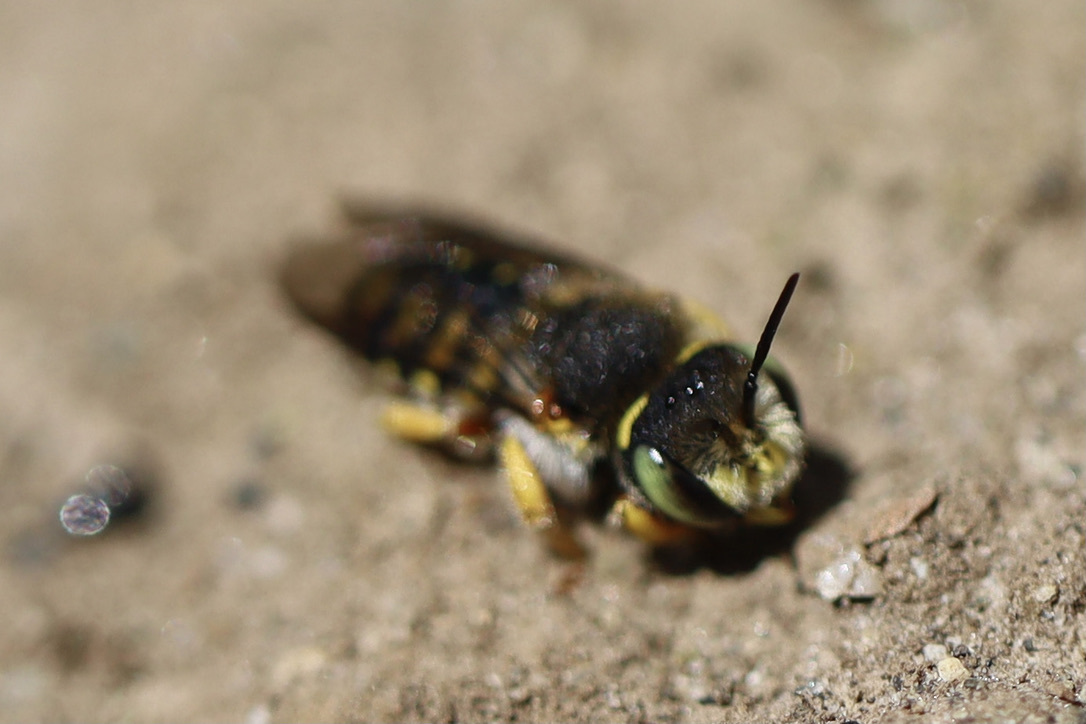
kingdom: Animalia
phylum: Arthropoda
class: Insecta
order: Hymenoptera
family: Megachilidae
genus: Anthidium
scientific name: Anthidium oblongatum
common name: Oblong wool carder bee
